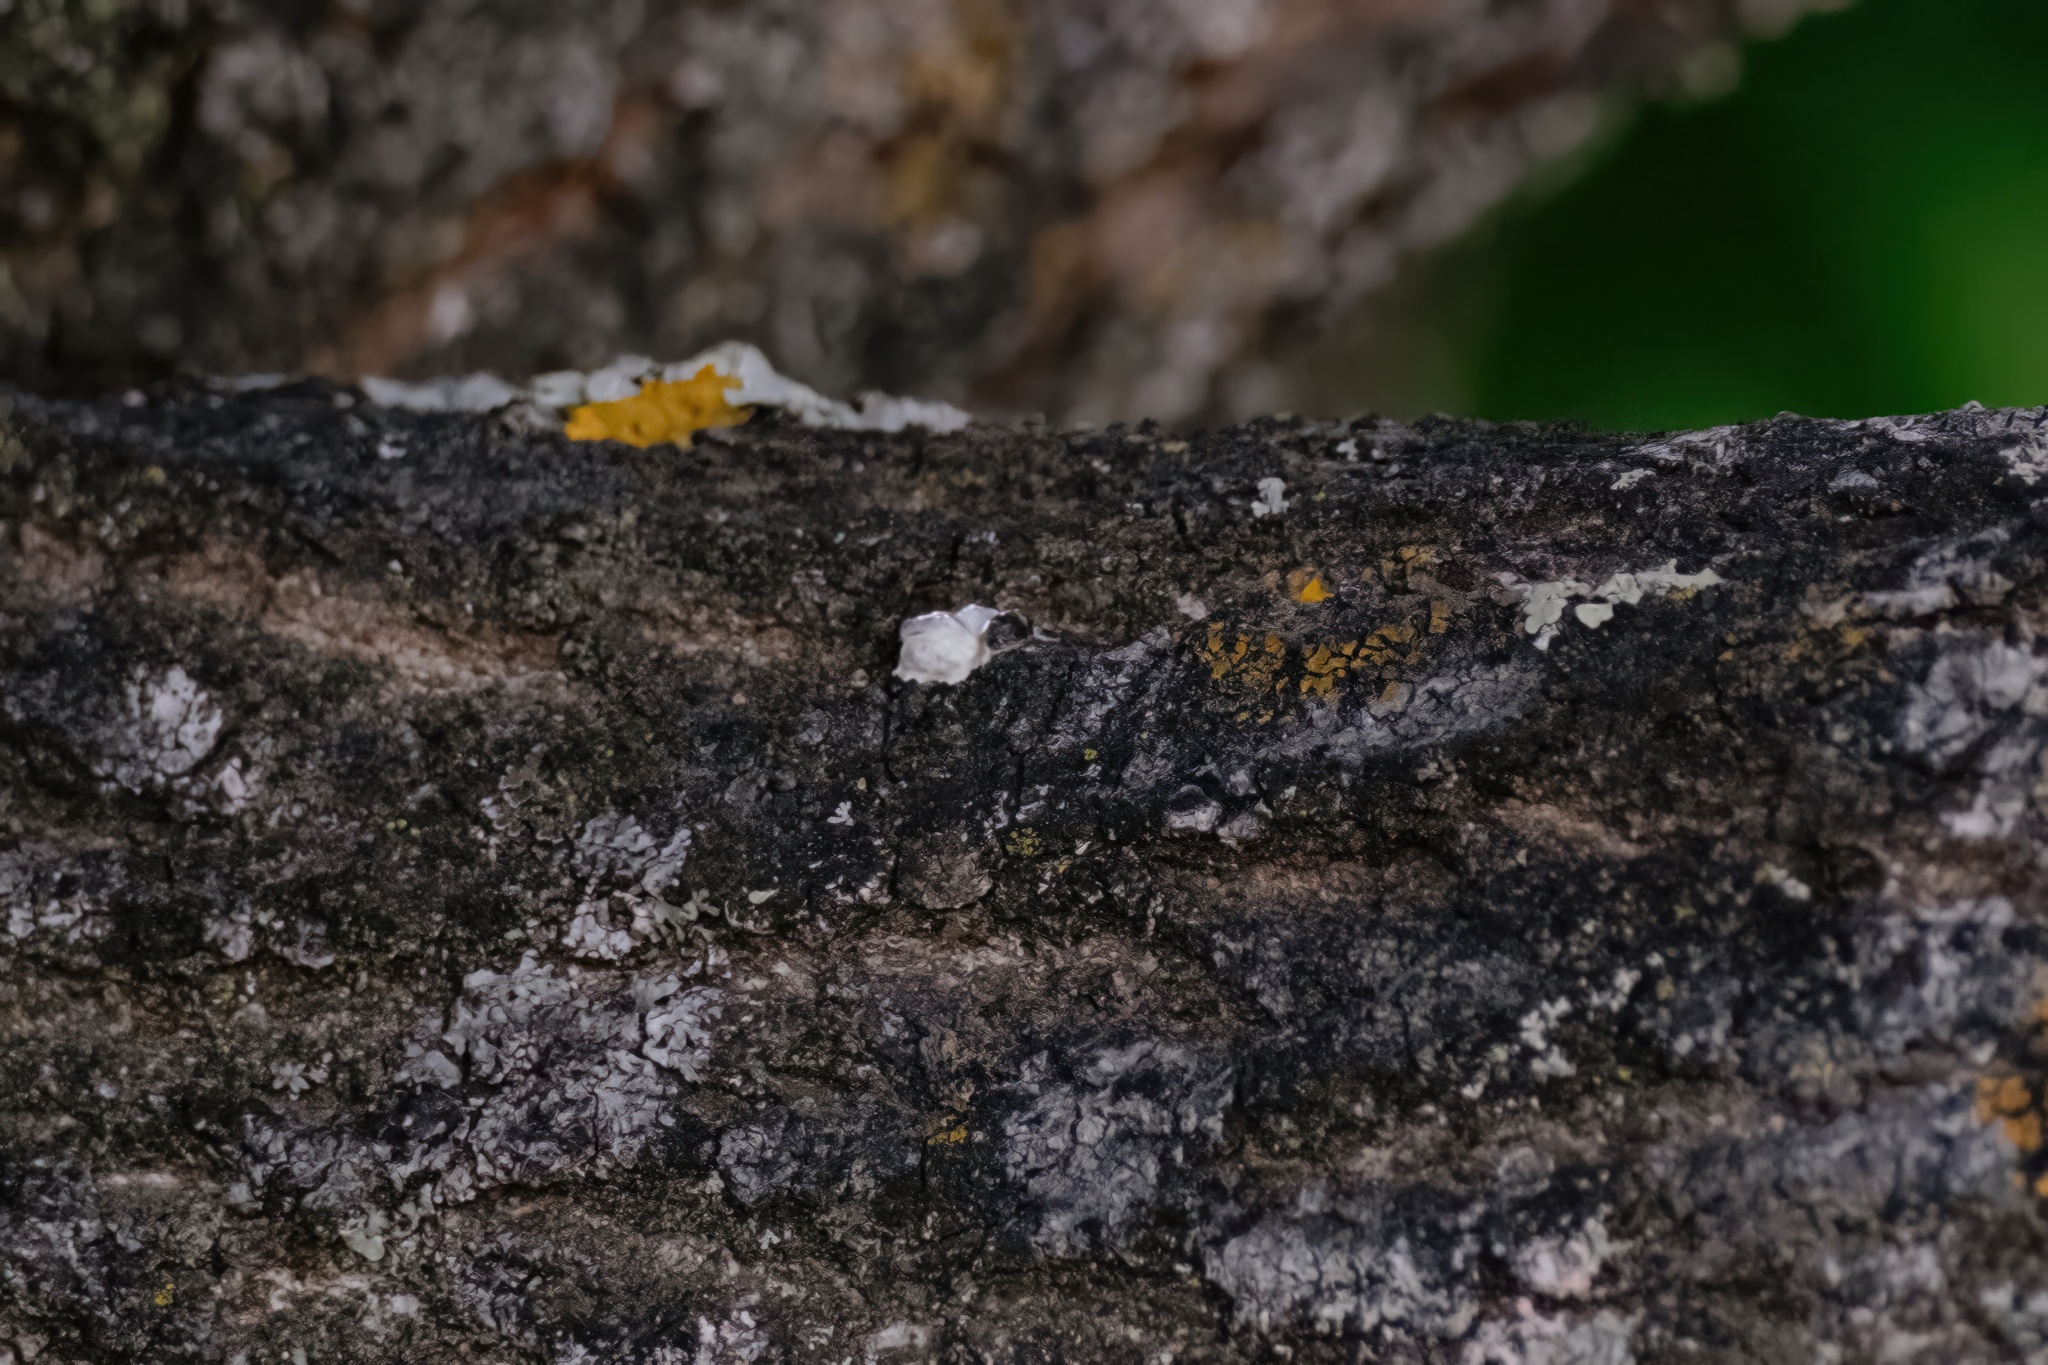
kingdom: Animalia
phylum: Chordata
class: Aves
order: Passeriformes
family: Muscicapidae
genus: Phoenicurus
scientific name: Phoenicurus ochruros
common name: Black redstart
